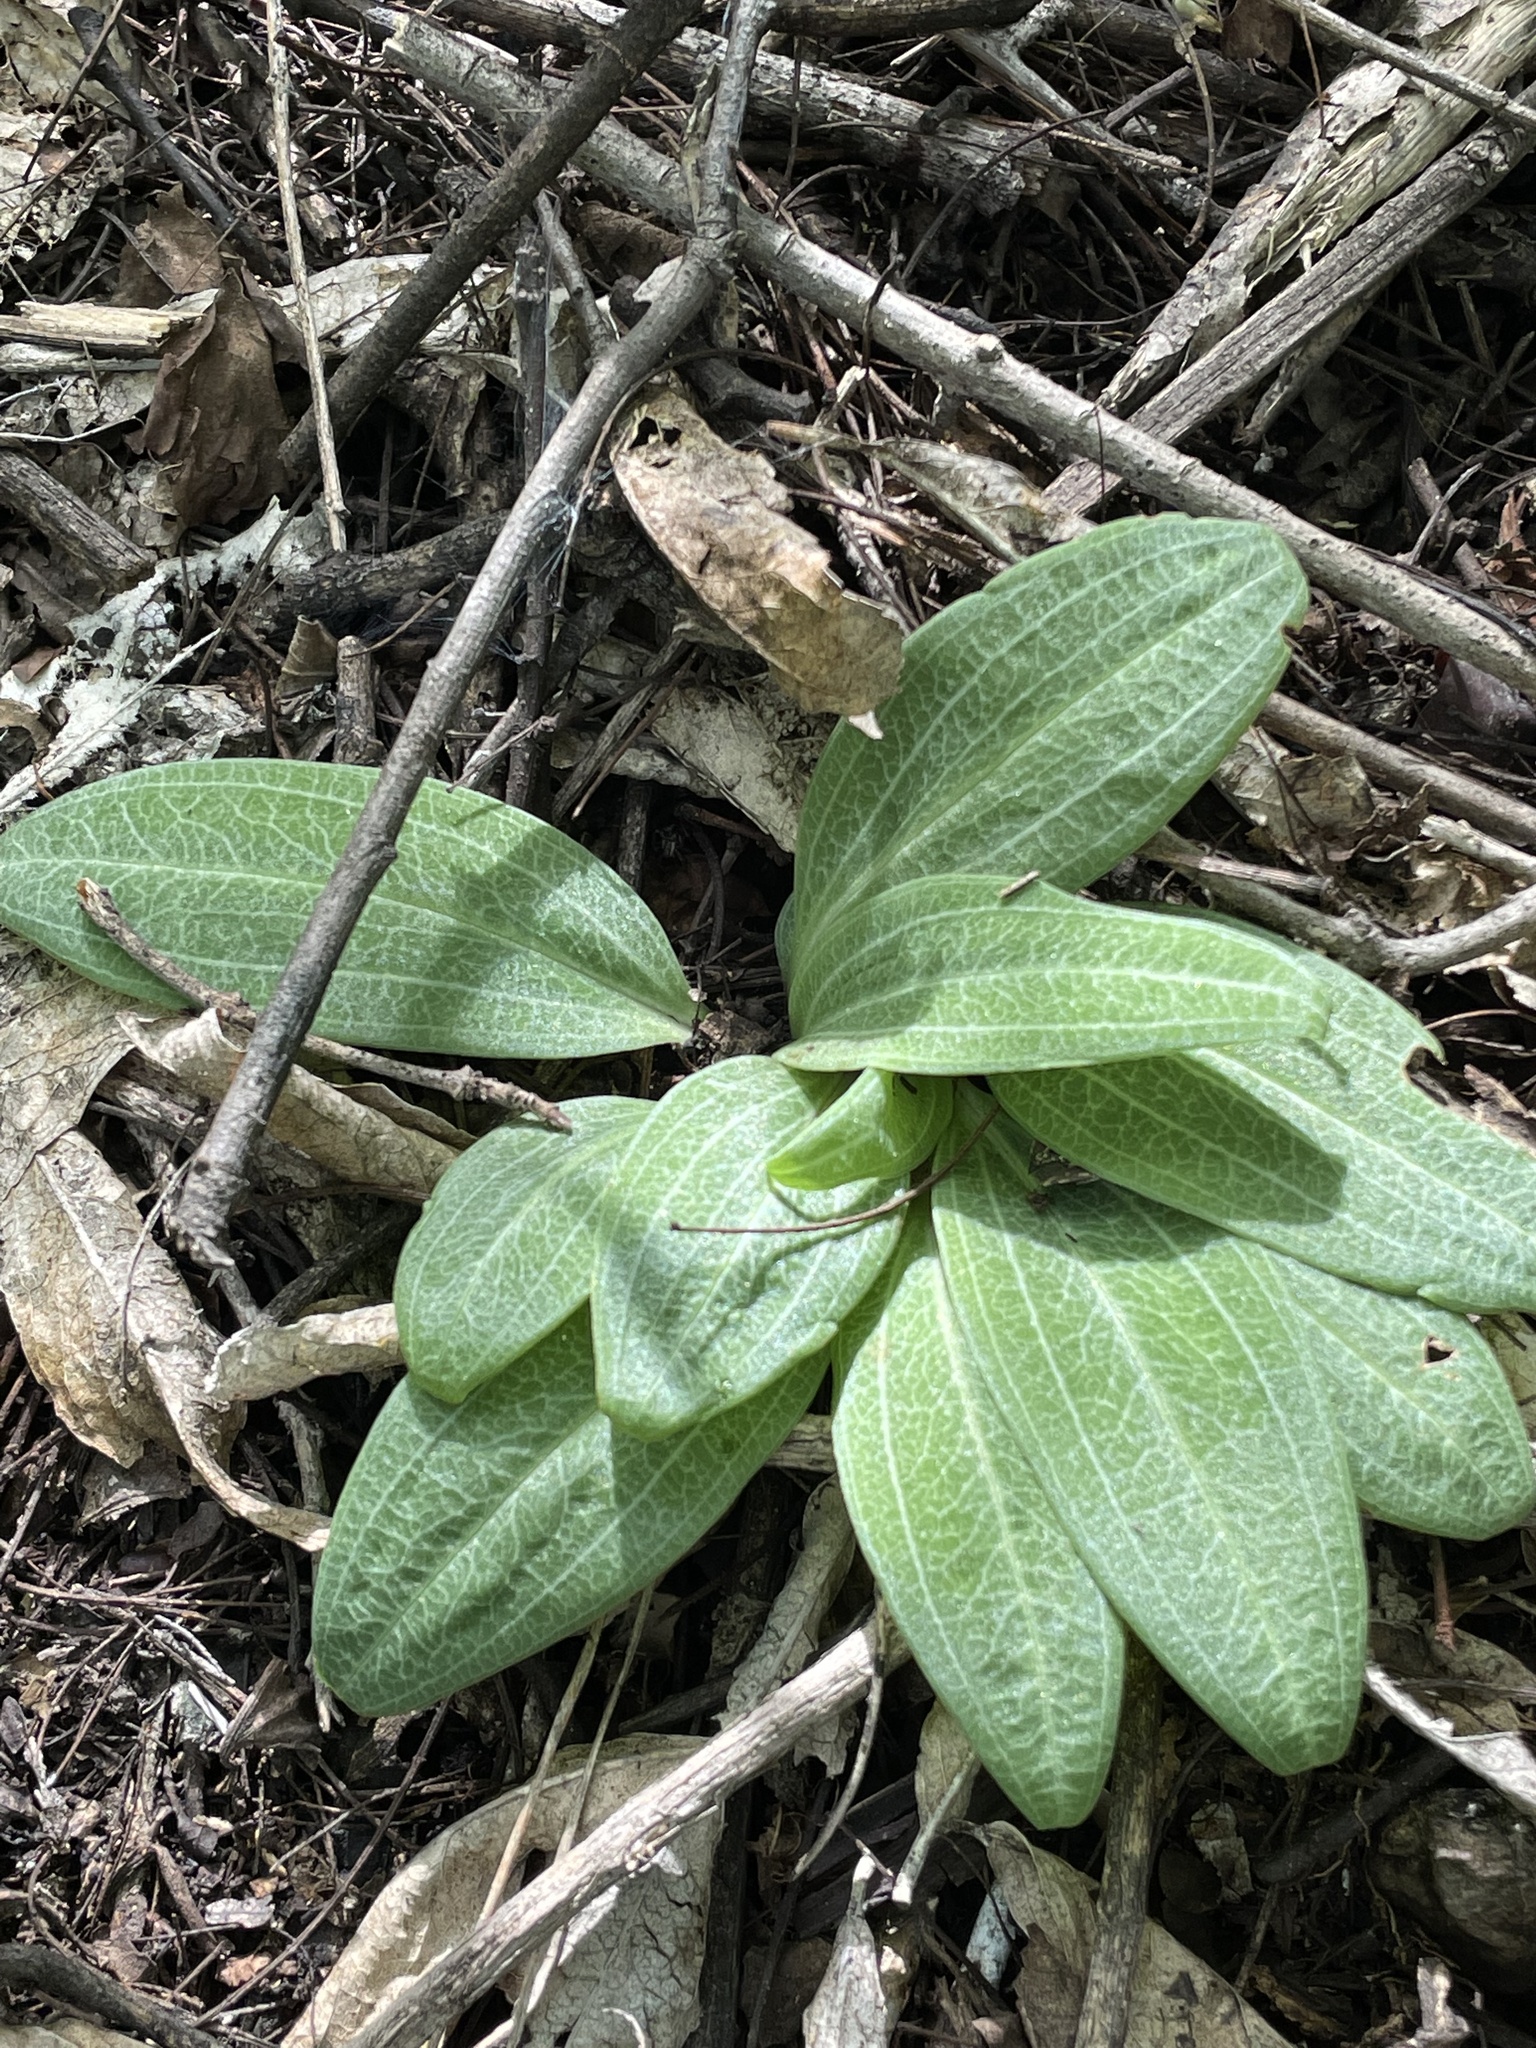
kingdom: Plantae
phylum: Tracheophyta
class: Liliopsida
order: Asparagales
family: Orchidaceae
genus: Mesadenus
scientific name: Mesadenus tenuissimus
